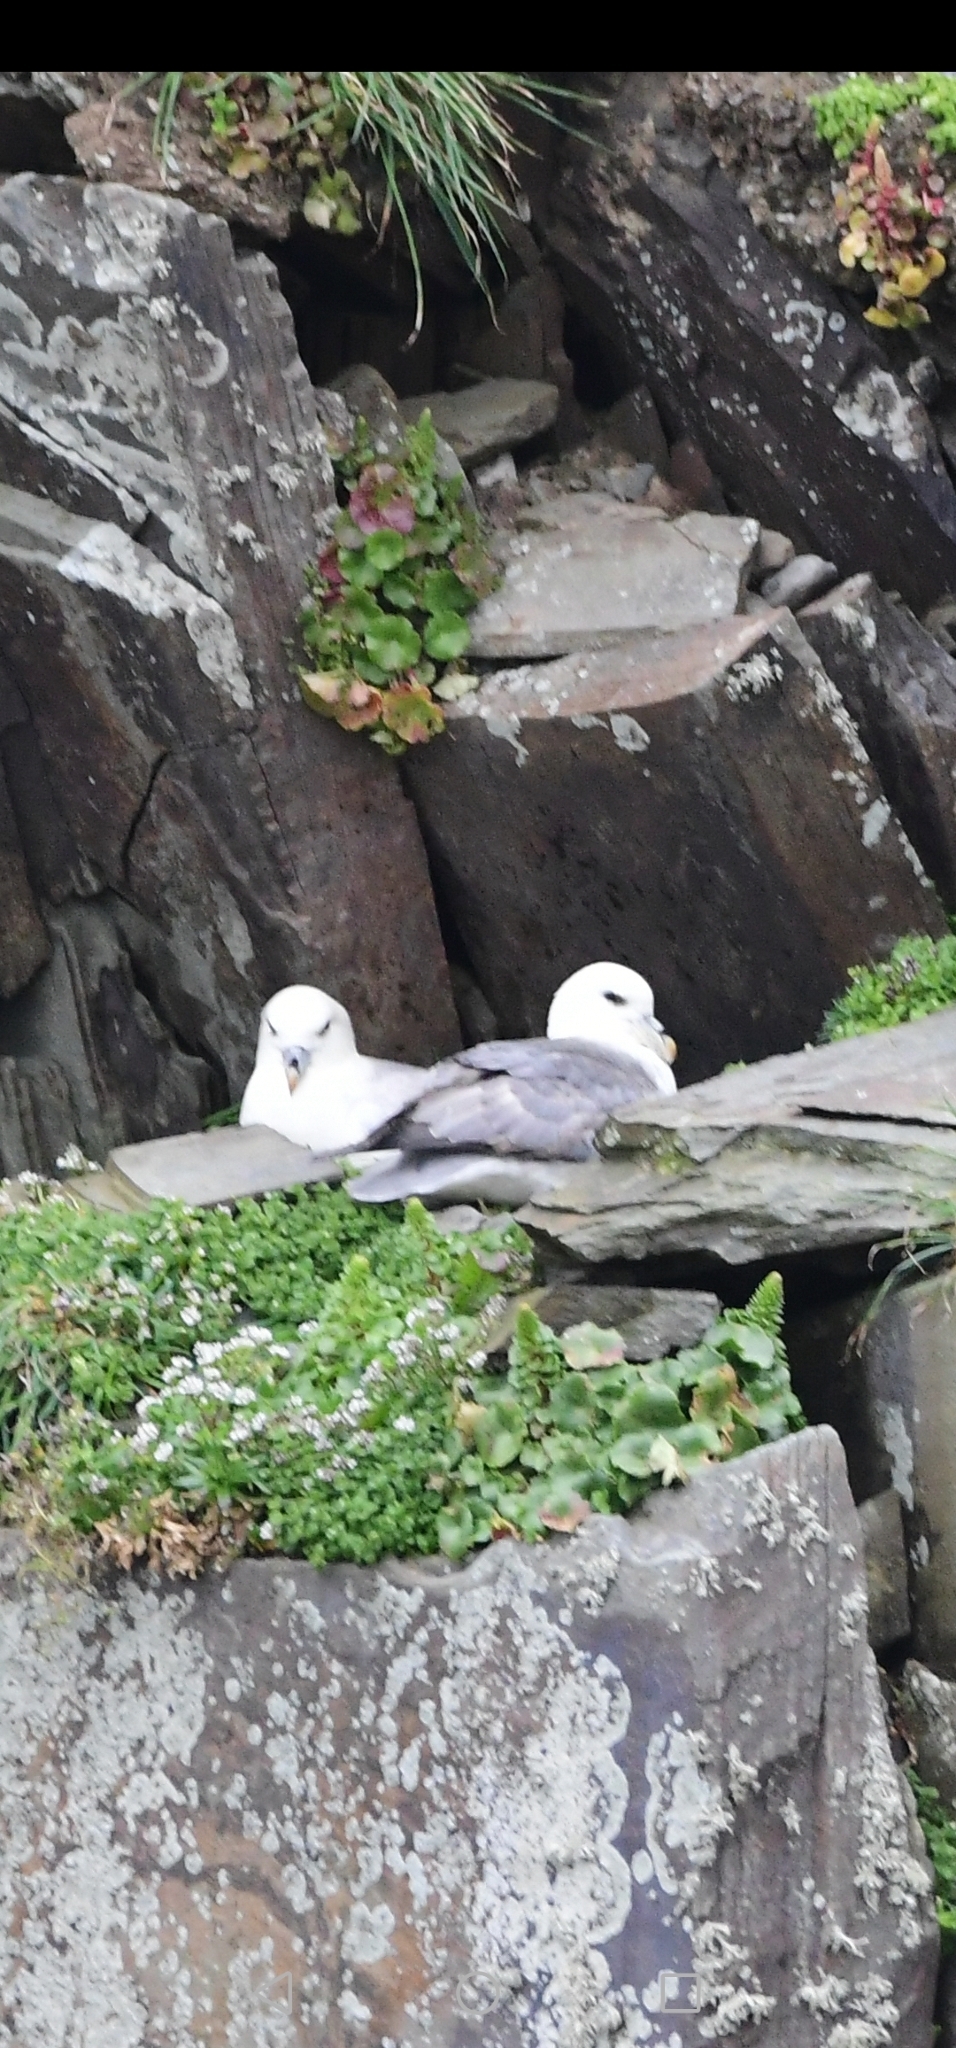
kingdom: Animalia
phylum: Chordata
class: Aves
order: Procellariiformes
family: Procellariidae
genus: Fulmarus
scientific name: Fulmarus glacialis
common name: Northern fulmar
